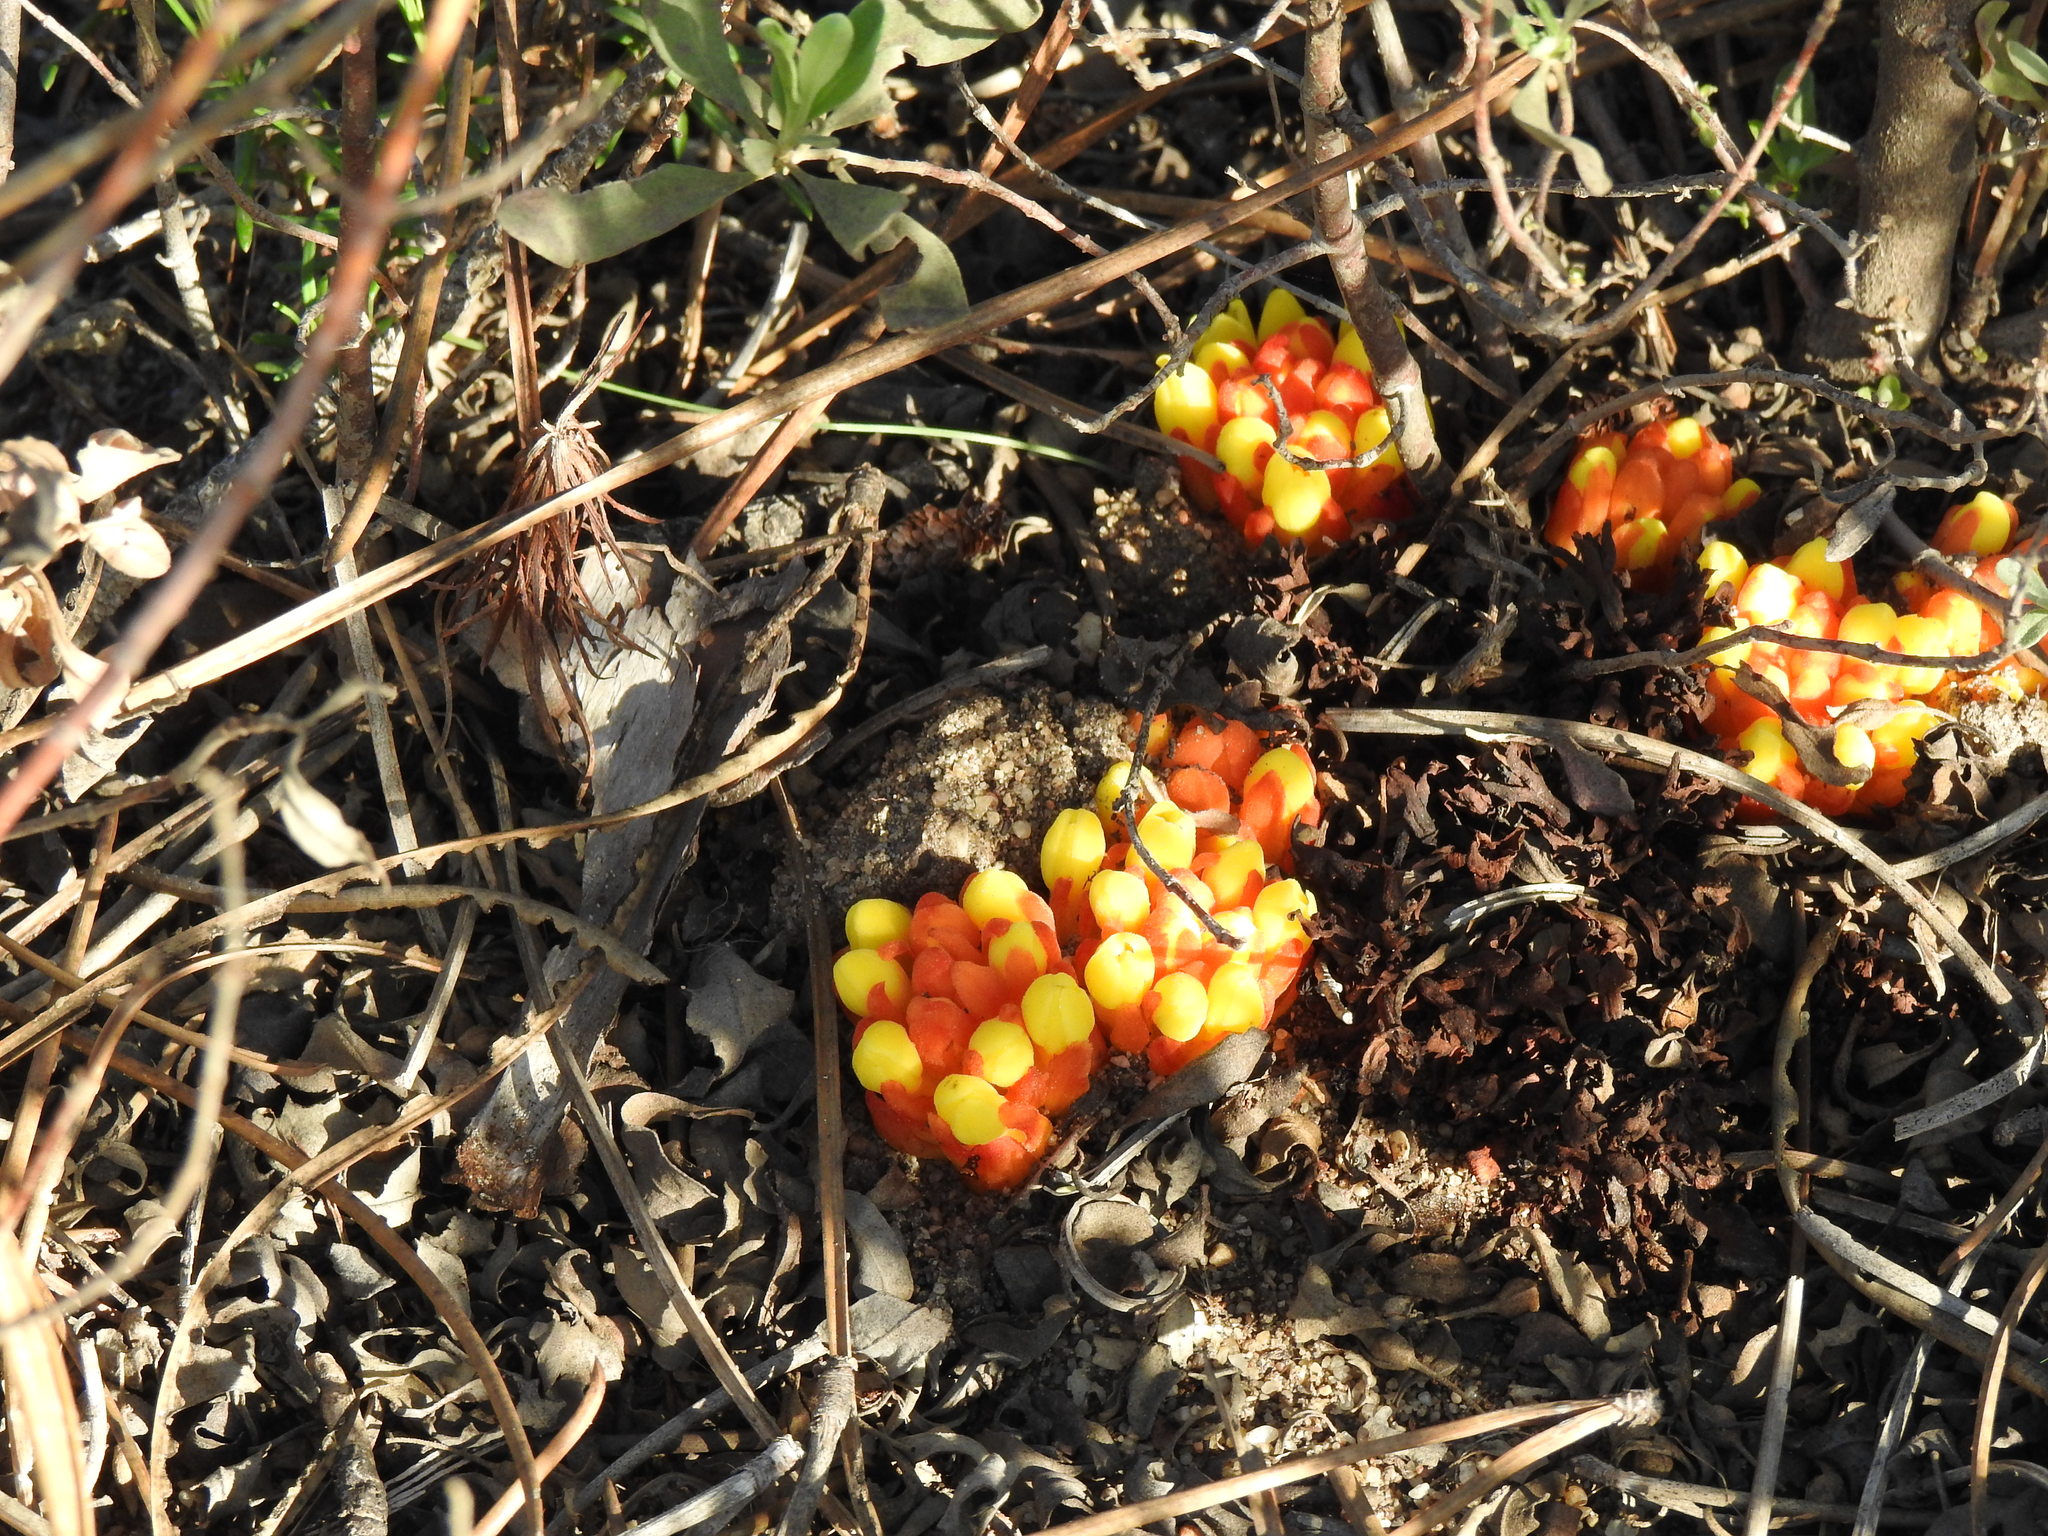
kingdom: Plantae
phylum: Tracheophyta
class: Magnoliopsida
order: Malvales
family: Cytinaceae
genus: Cytinus
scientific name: Cytinus hypocistis
